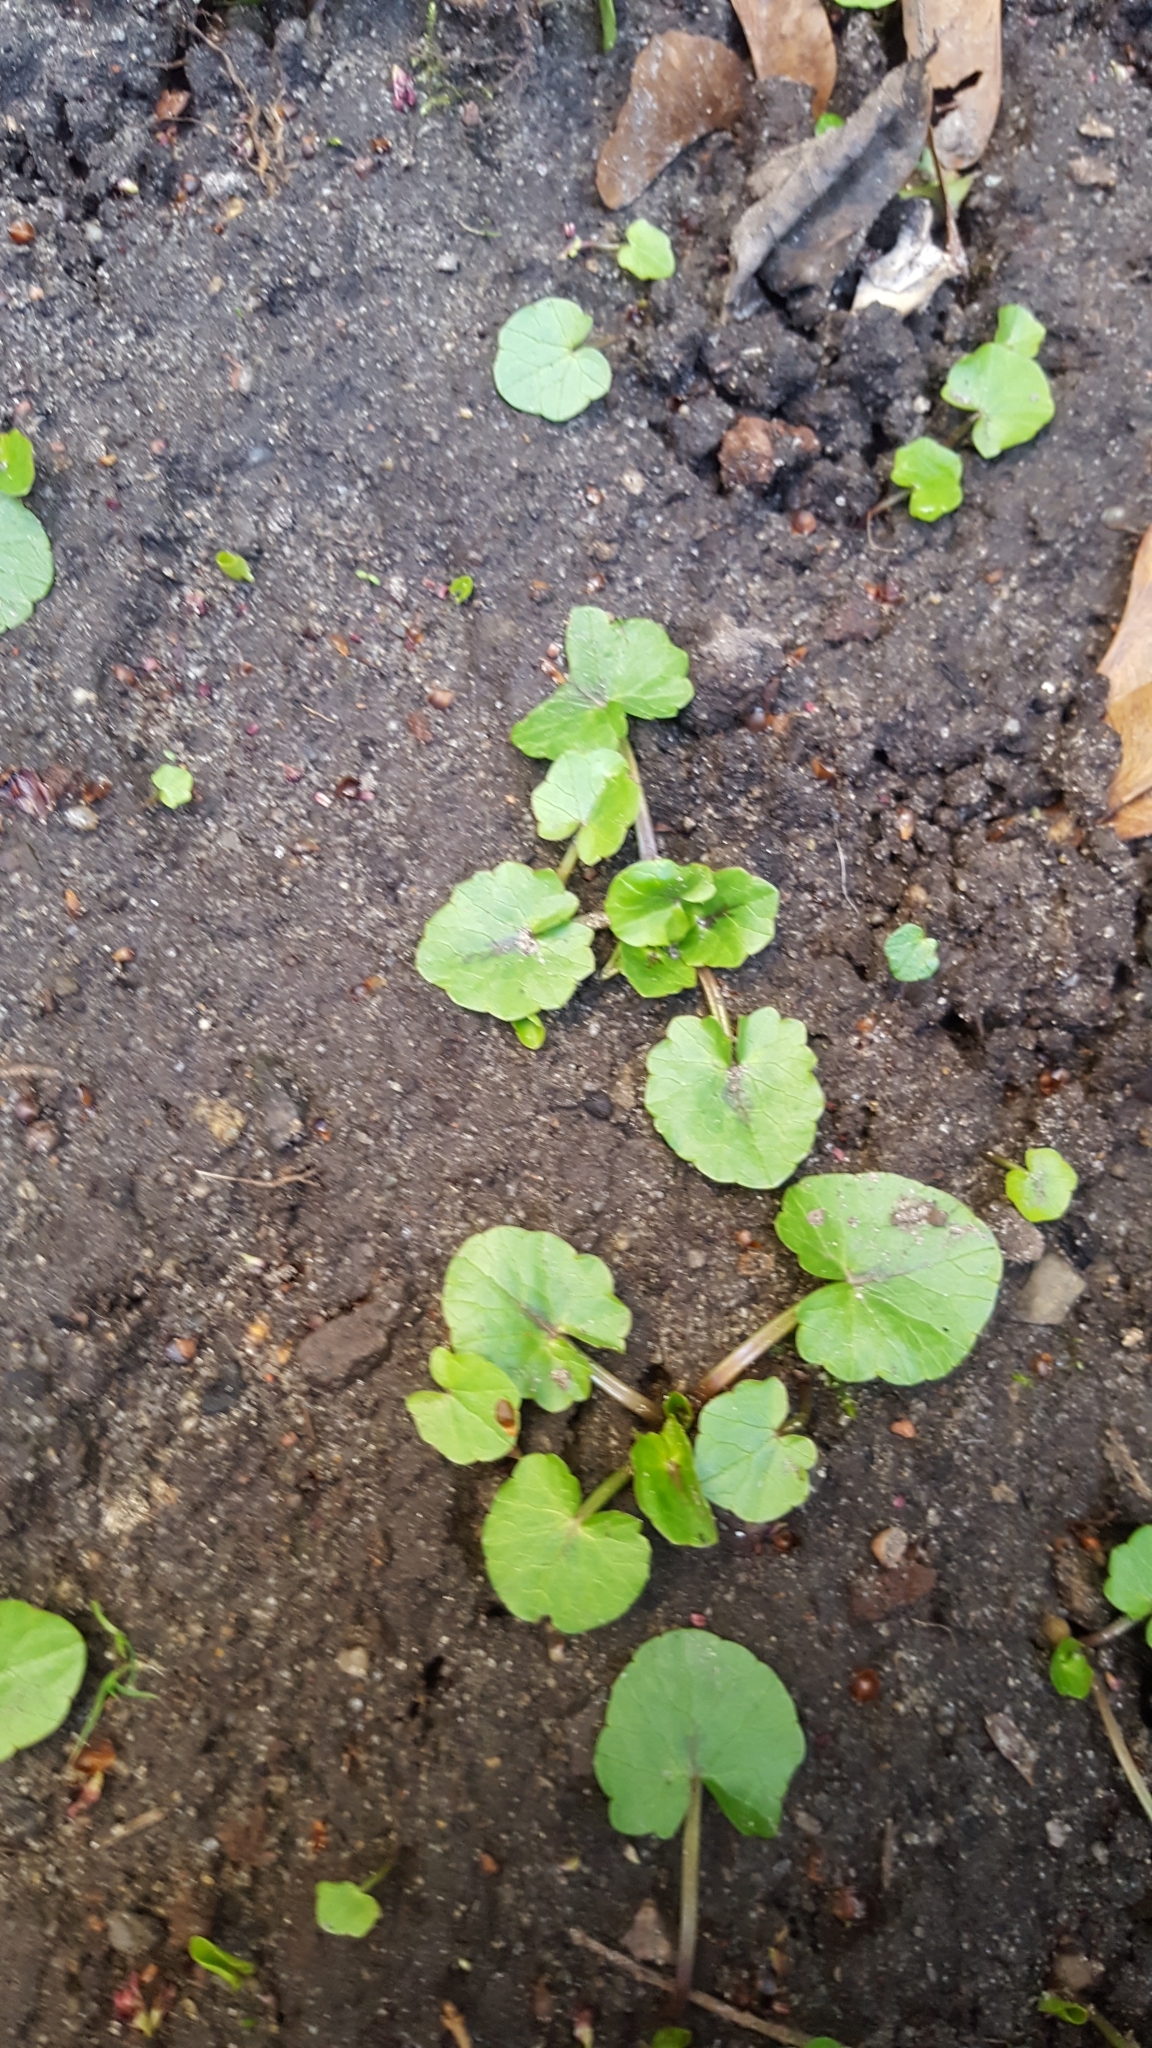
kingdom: Plantae
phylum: Tracheophyta
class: Magnoliopsida
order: Ranunculales
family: Ranunculaceae
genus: Ficaria
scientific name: Ficaria verna
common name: Lesser celandine
